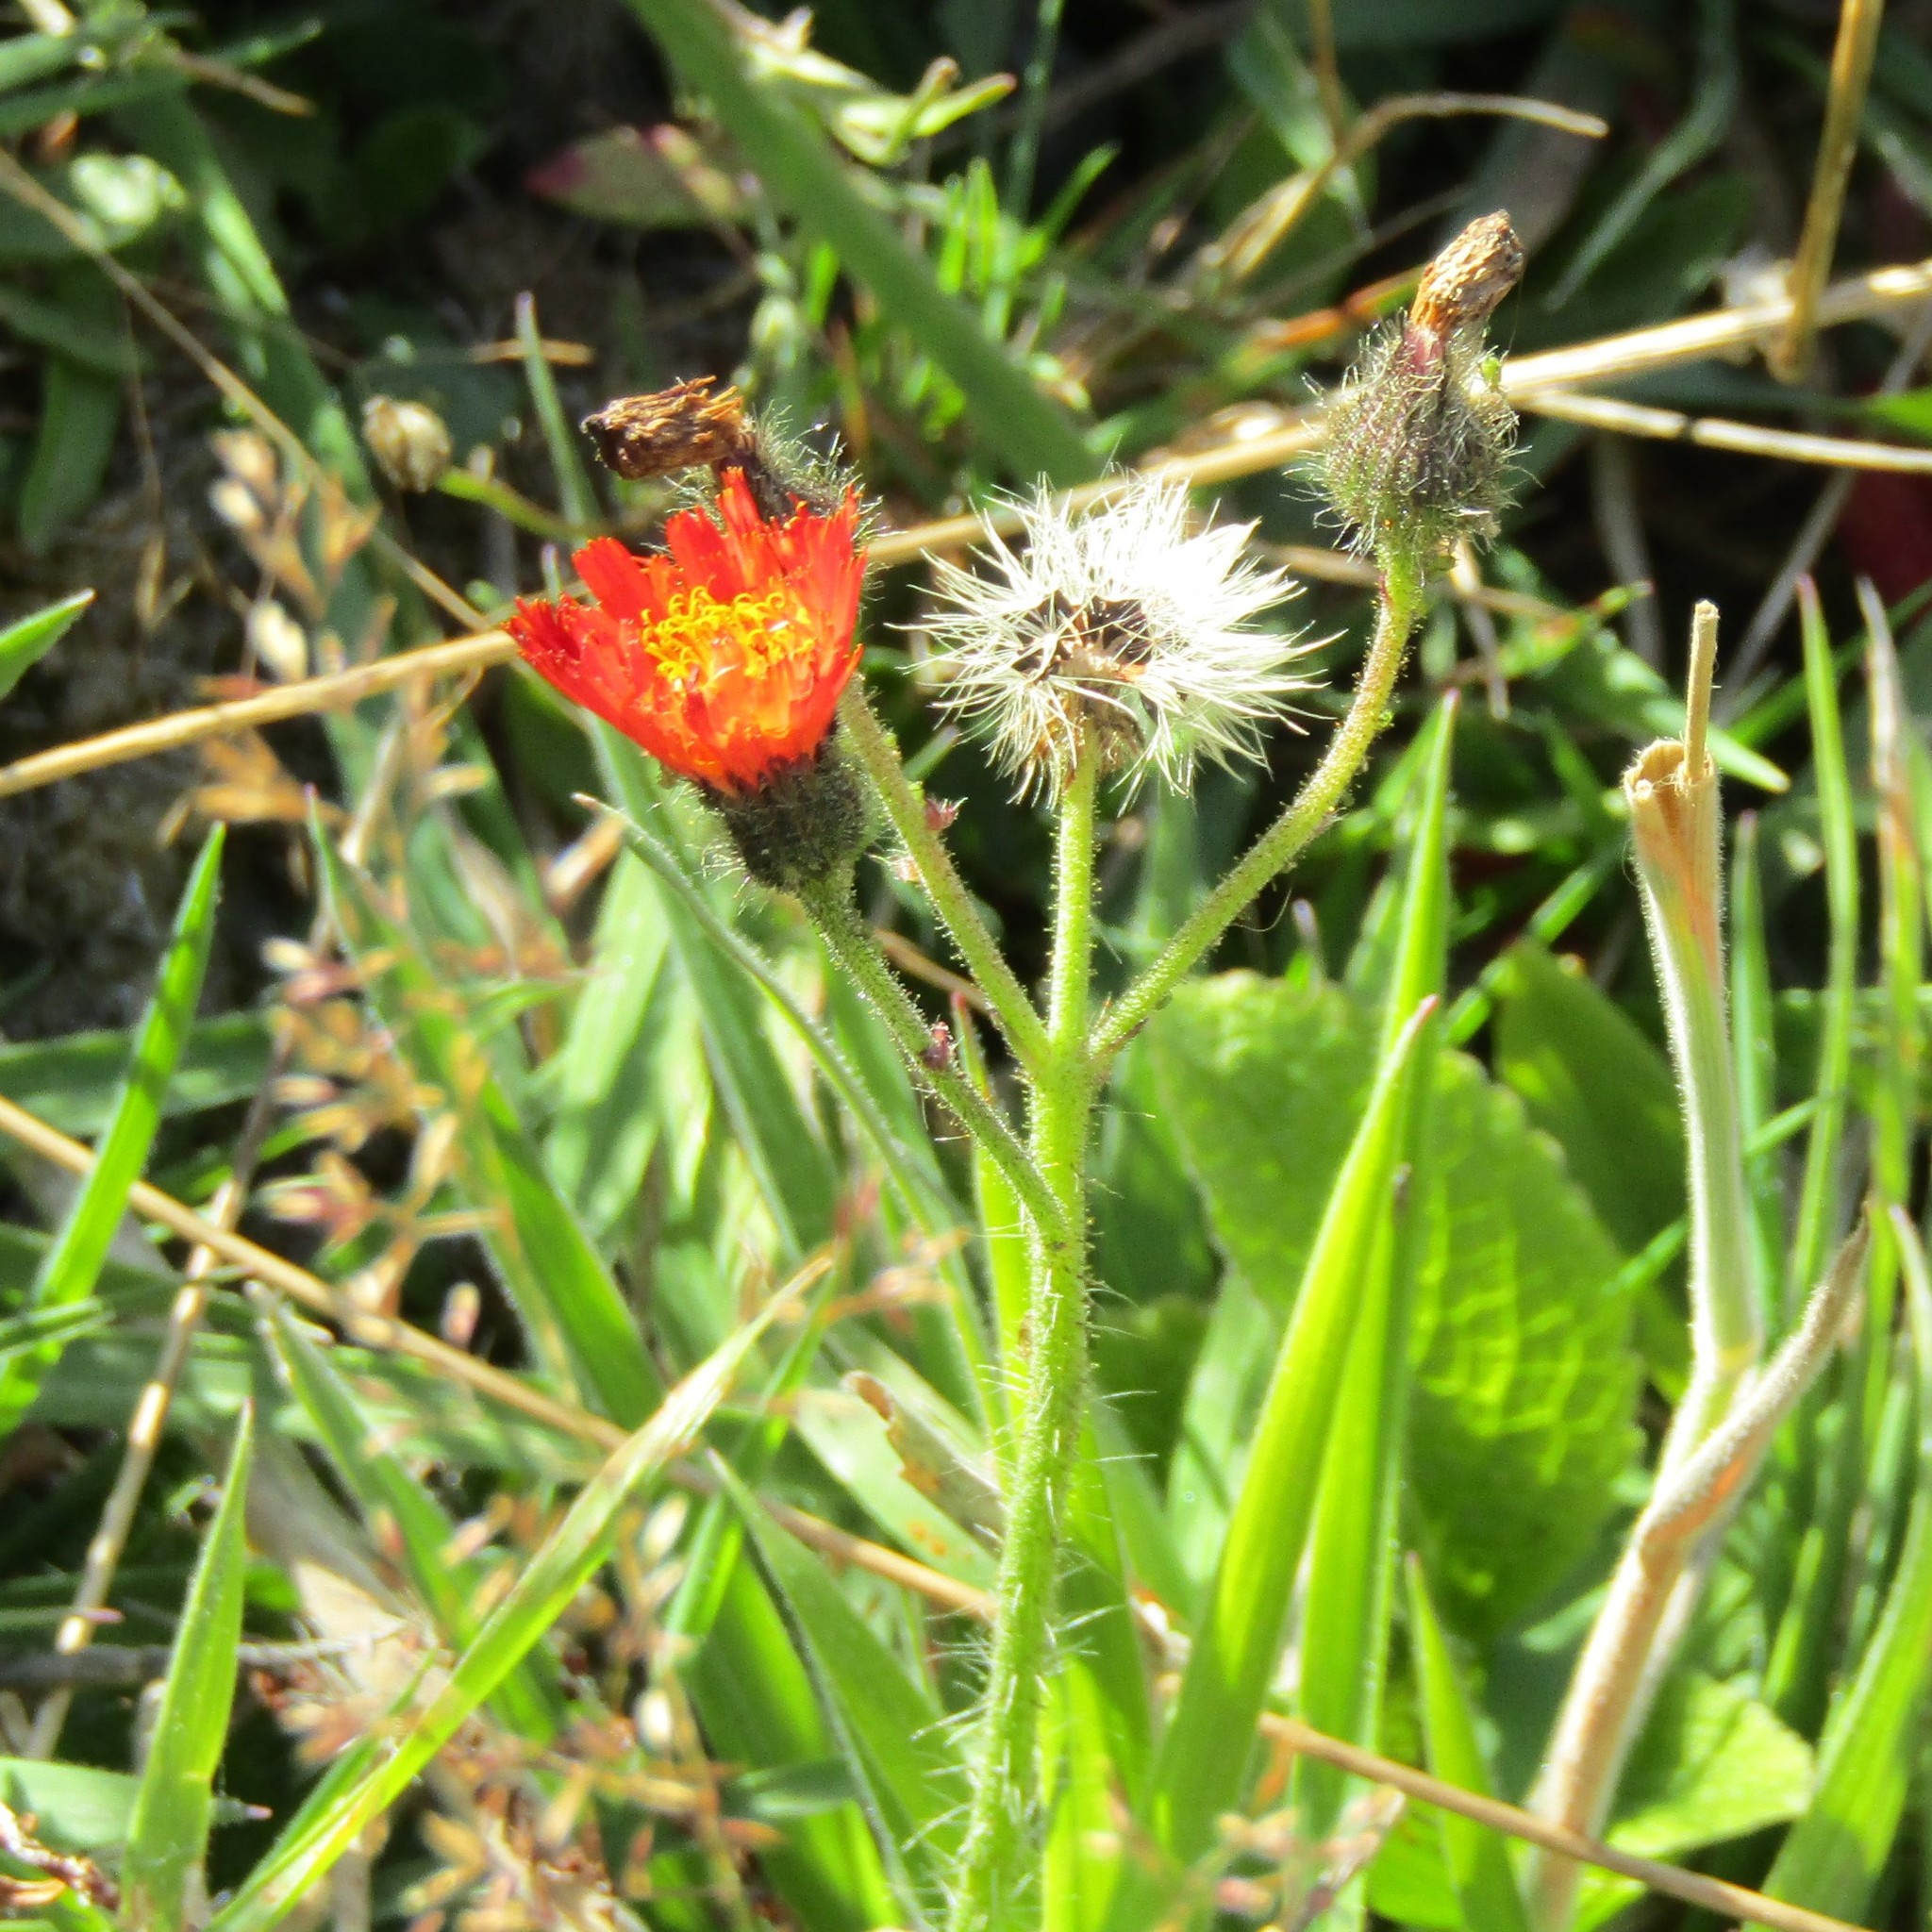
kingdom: Plantae
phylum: Tracheophyta
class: Magnoliopsida
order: Asterales
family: Asteraceae
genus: Pilosella
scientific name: Pilosella aurantiaca
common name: Fox-and-cubs
